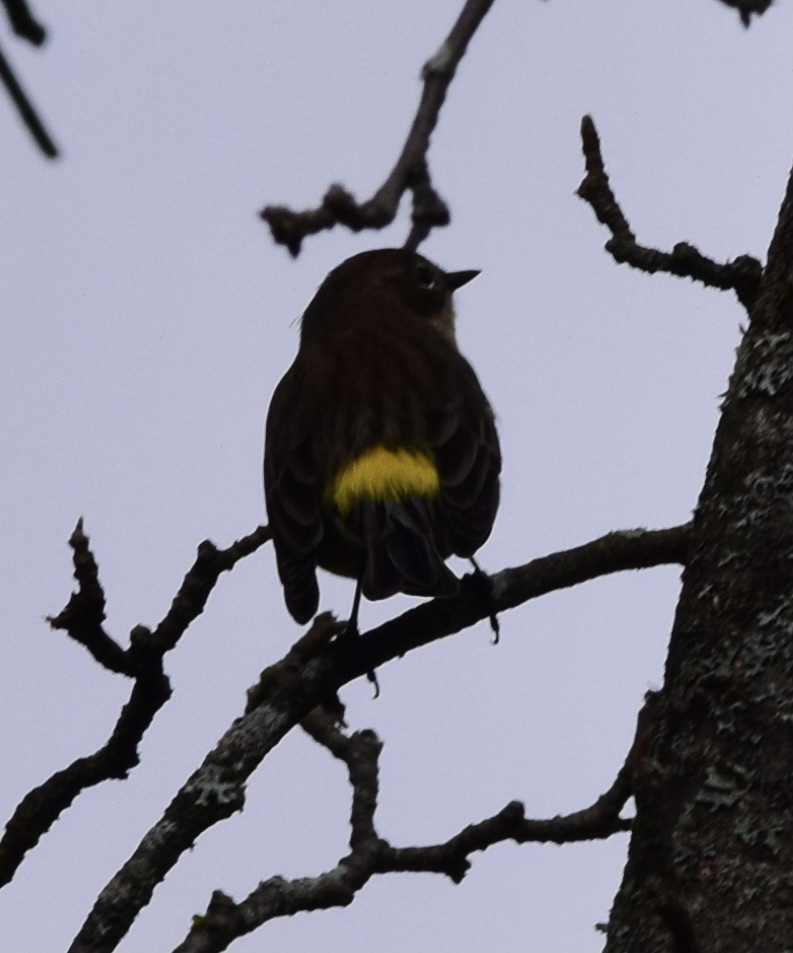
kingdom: Animalia
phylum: Chordata
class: Aves
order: Passeriformes
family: Parulidae
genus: Setophaga
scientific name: Setophaga coronata
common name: Myrtle warbler
